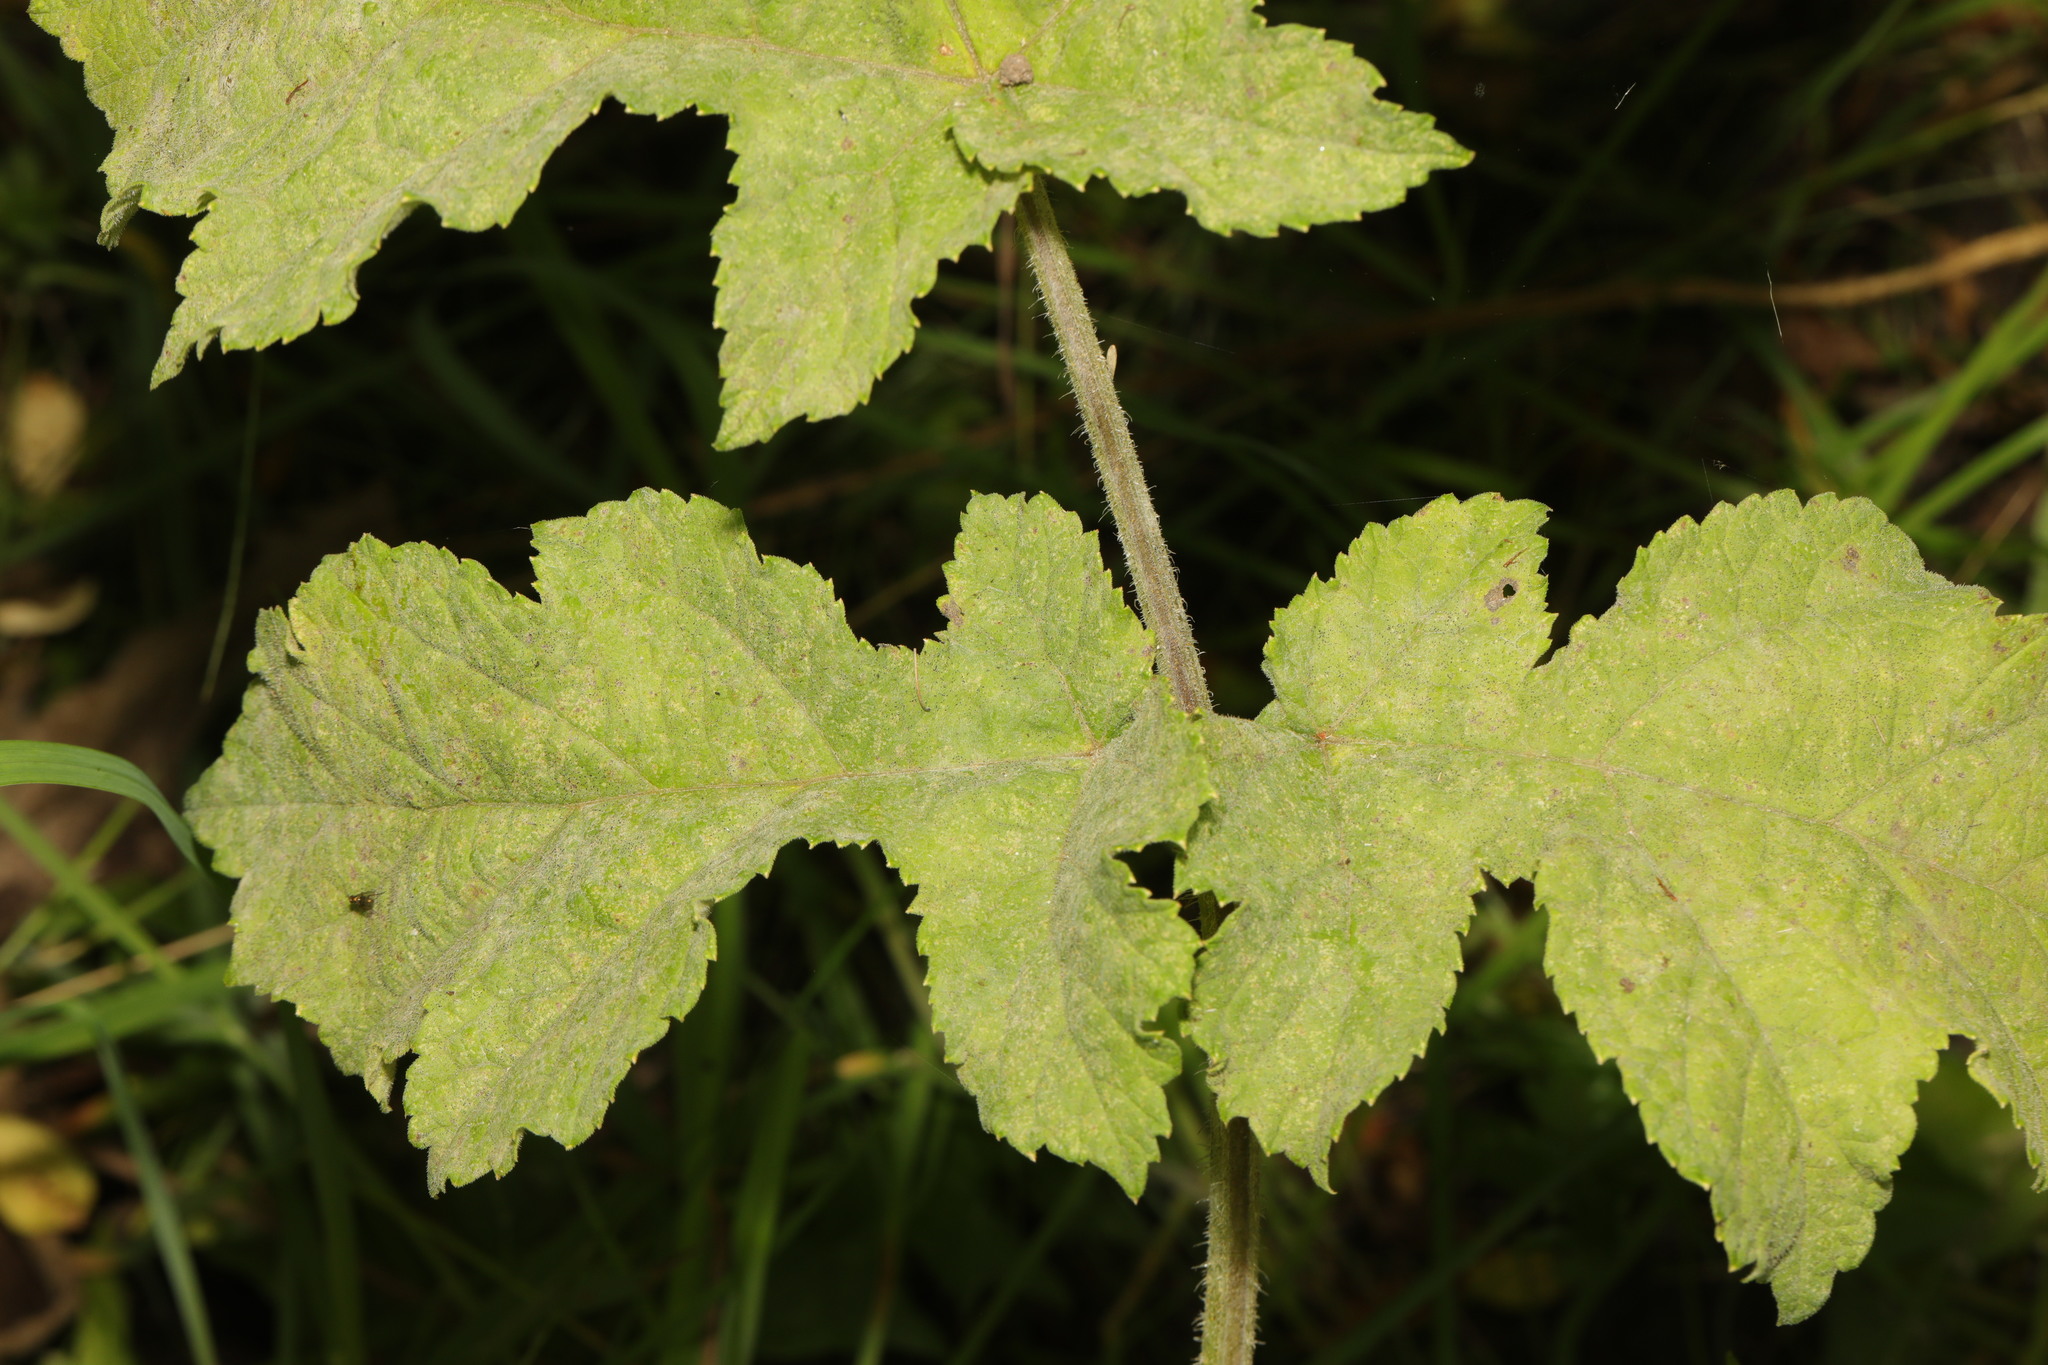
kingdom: Fungi
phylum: Ascomycota
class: Leotiomycetes
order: Helotiales
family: Erysiphaceae
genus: Erysiphe
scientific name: Erysiphe heraclei
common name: Umbellifer mildew
